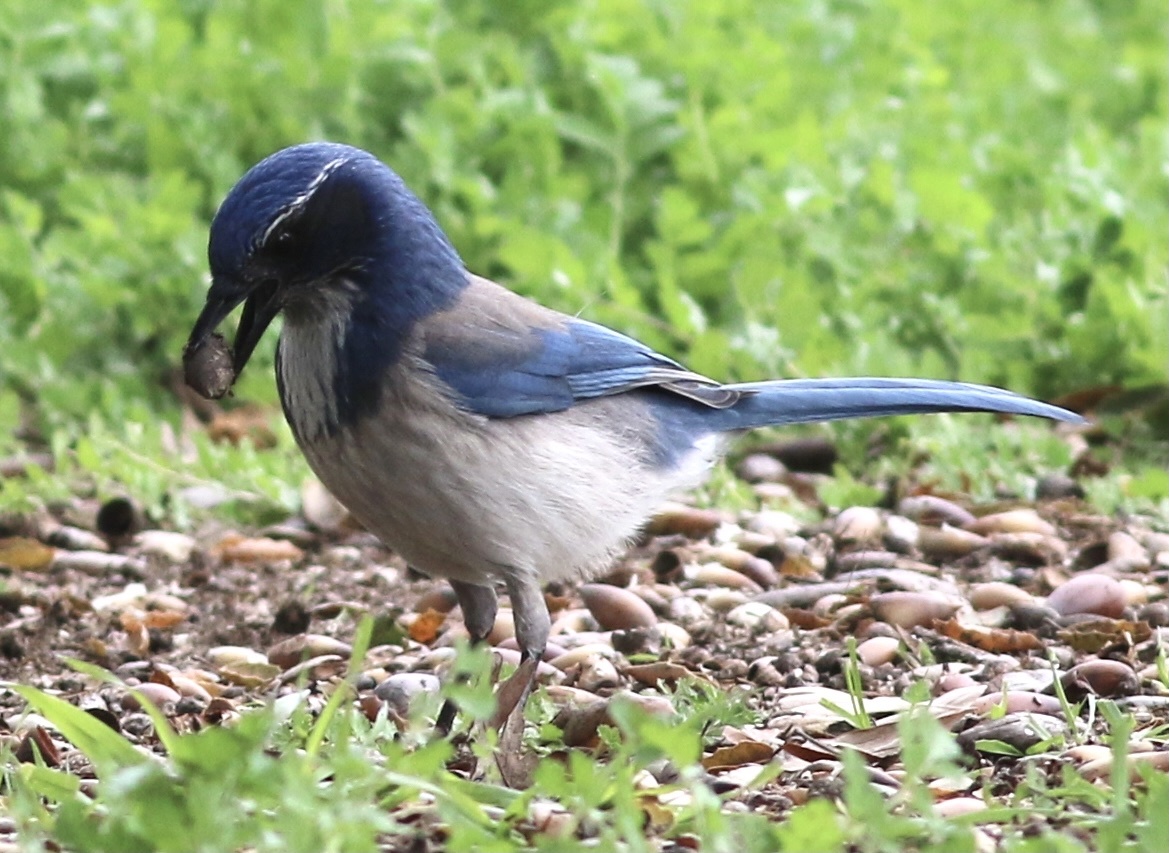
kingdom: Animalia
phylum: Chordata
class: Aves
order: Passeriformes
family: Corvidae
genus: Aphelocoma
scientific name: Aphelocoma californica
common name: California scrub-jay
